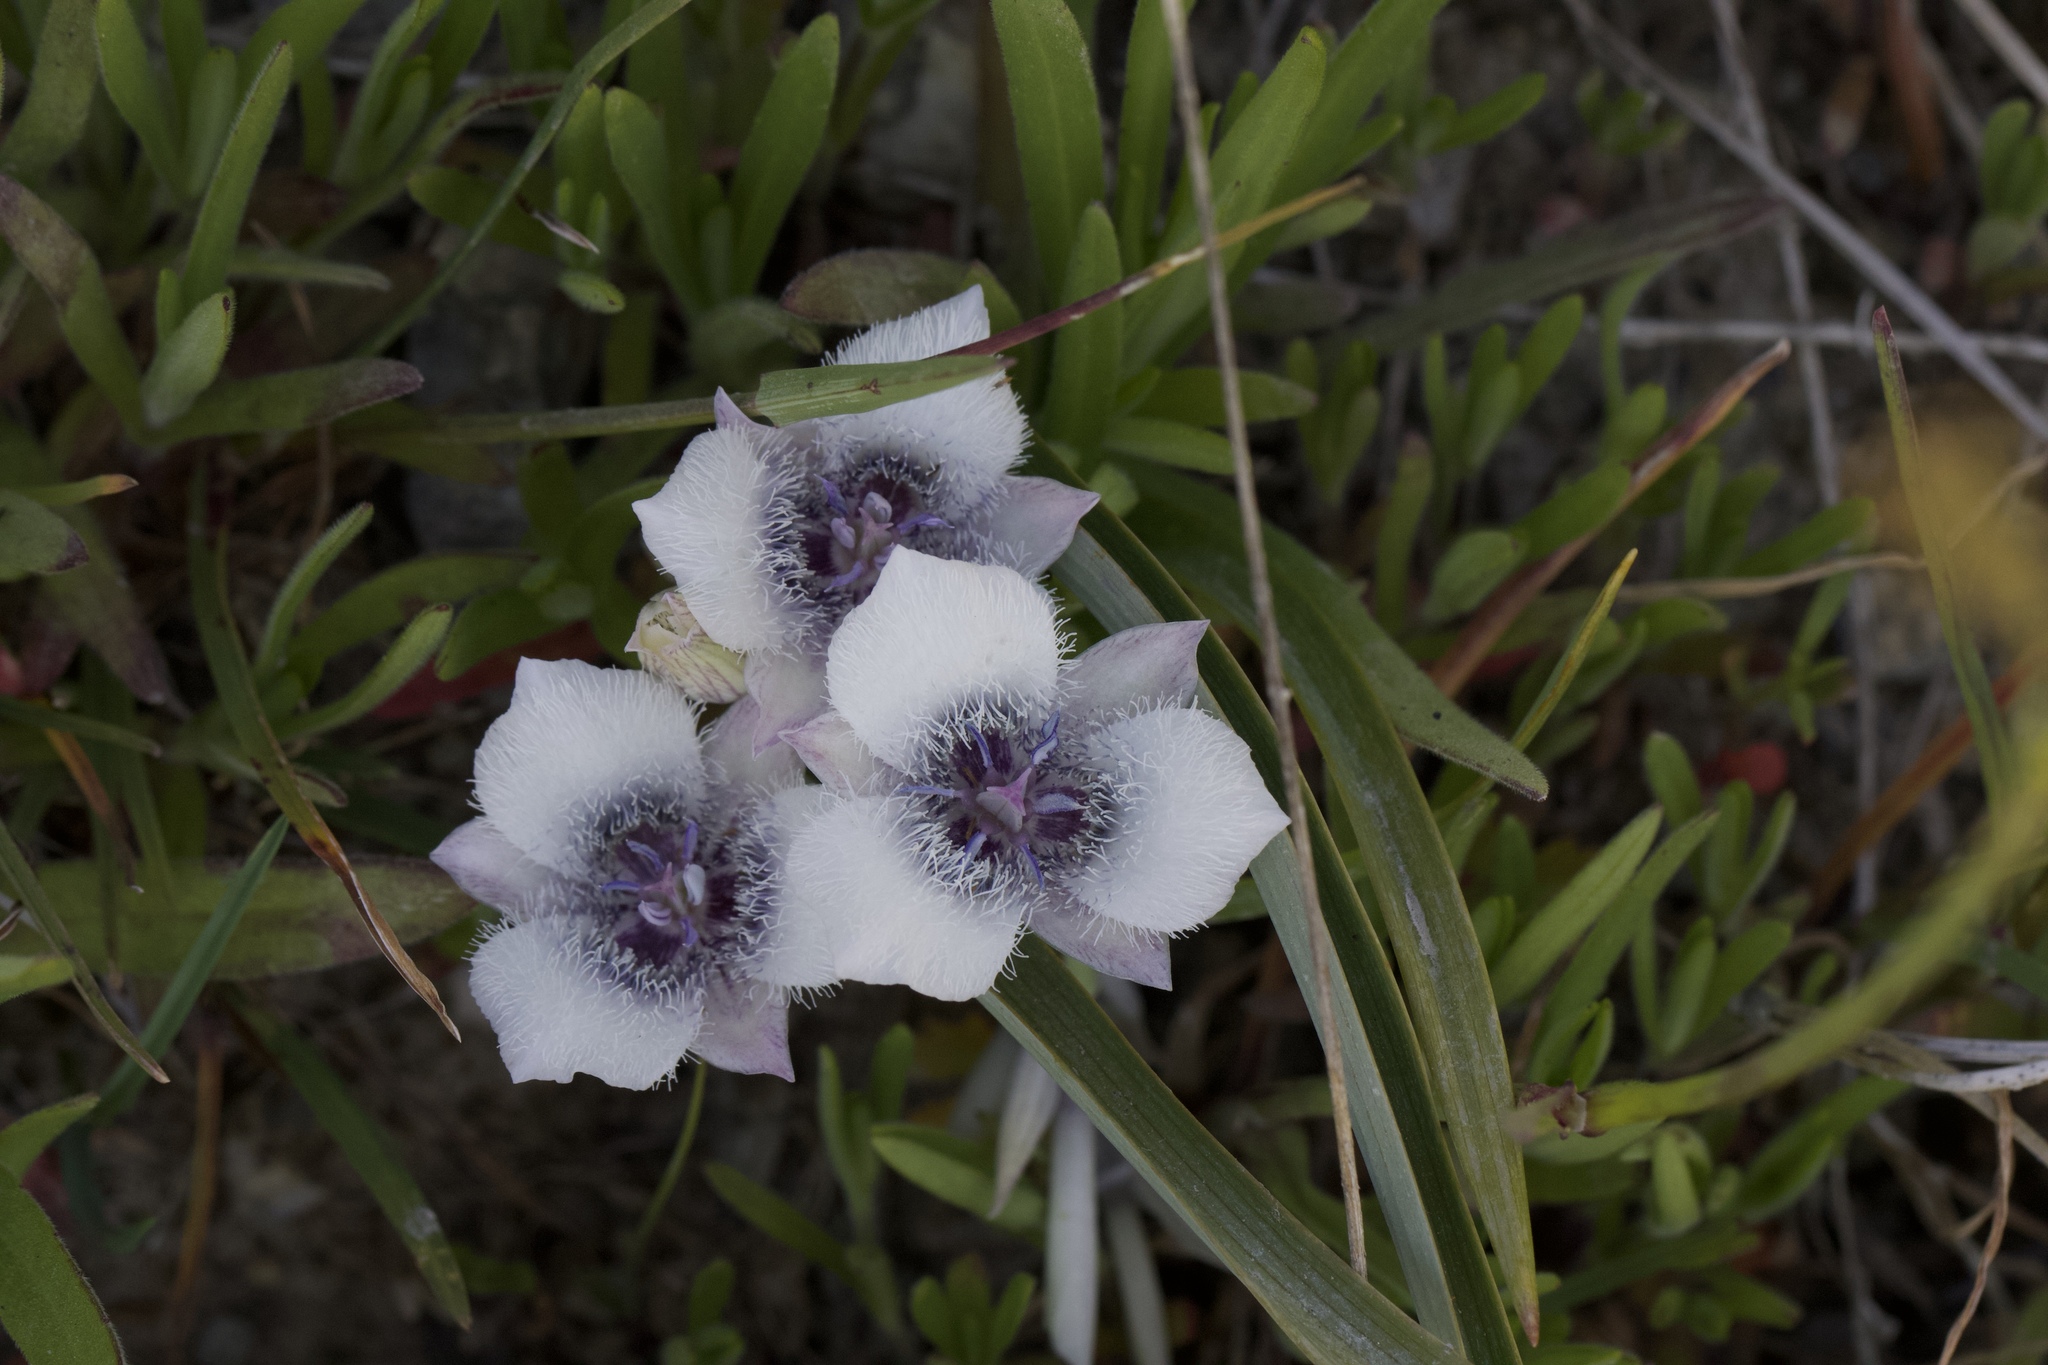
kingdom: Plantae
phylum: Tracheophyta
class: Liliopsida
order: Liliales
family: Liliaceae
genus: Calochortus
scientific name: Calochortus tolmiei
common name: Pussy-ears
